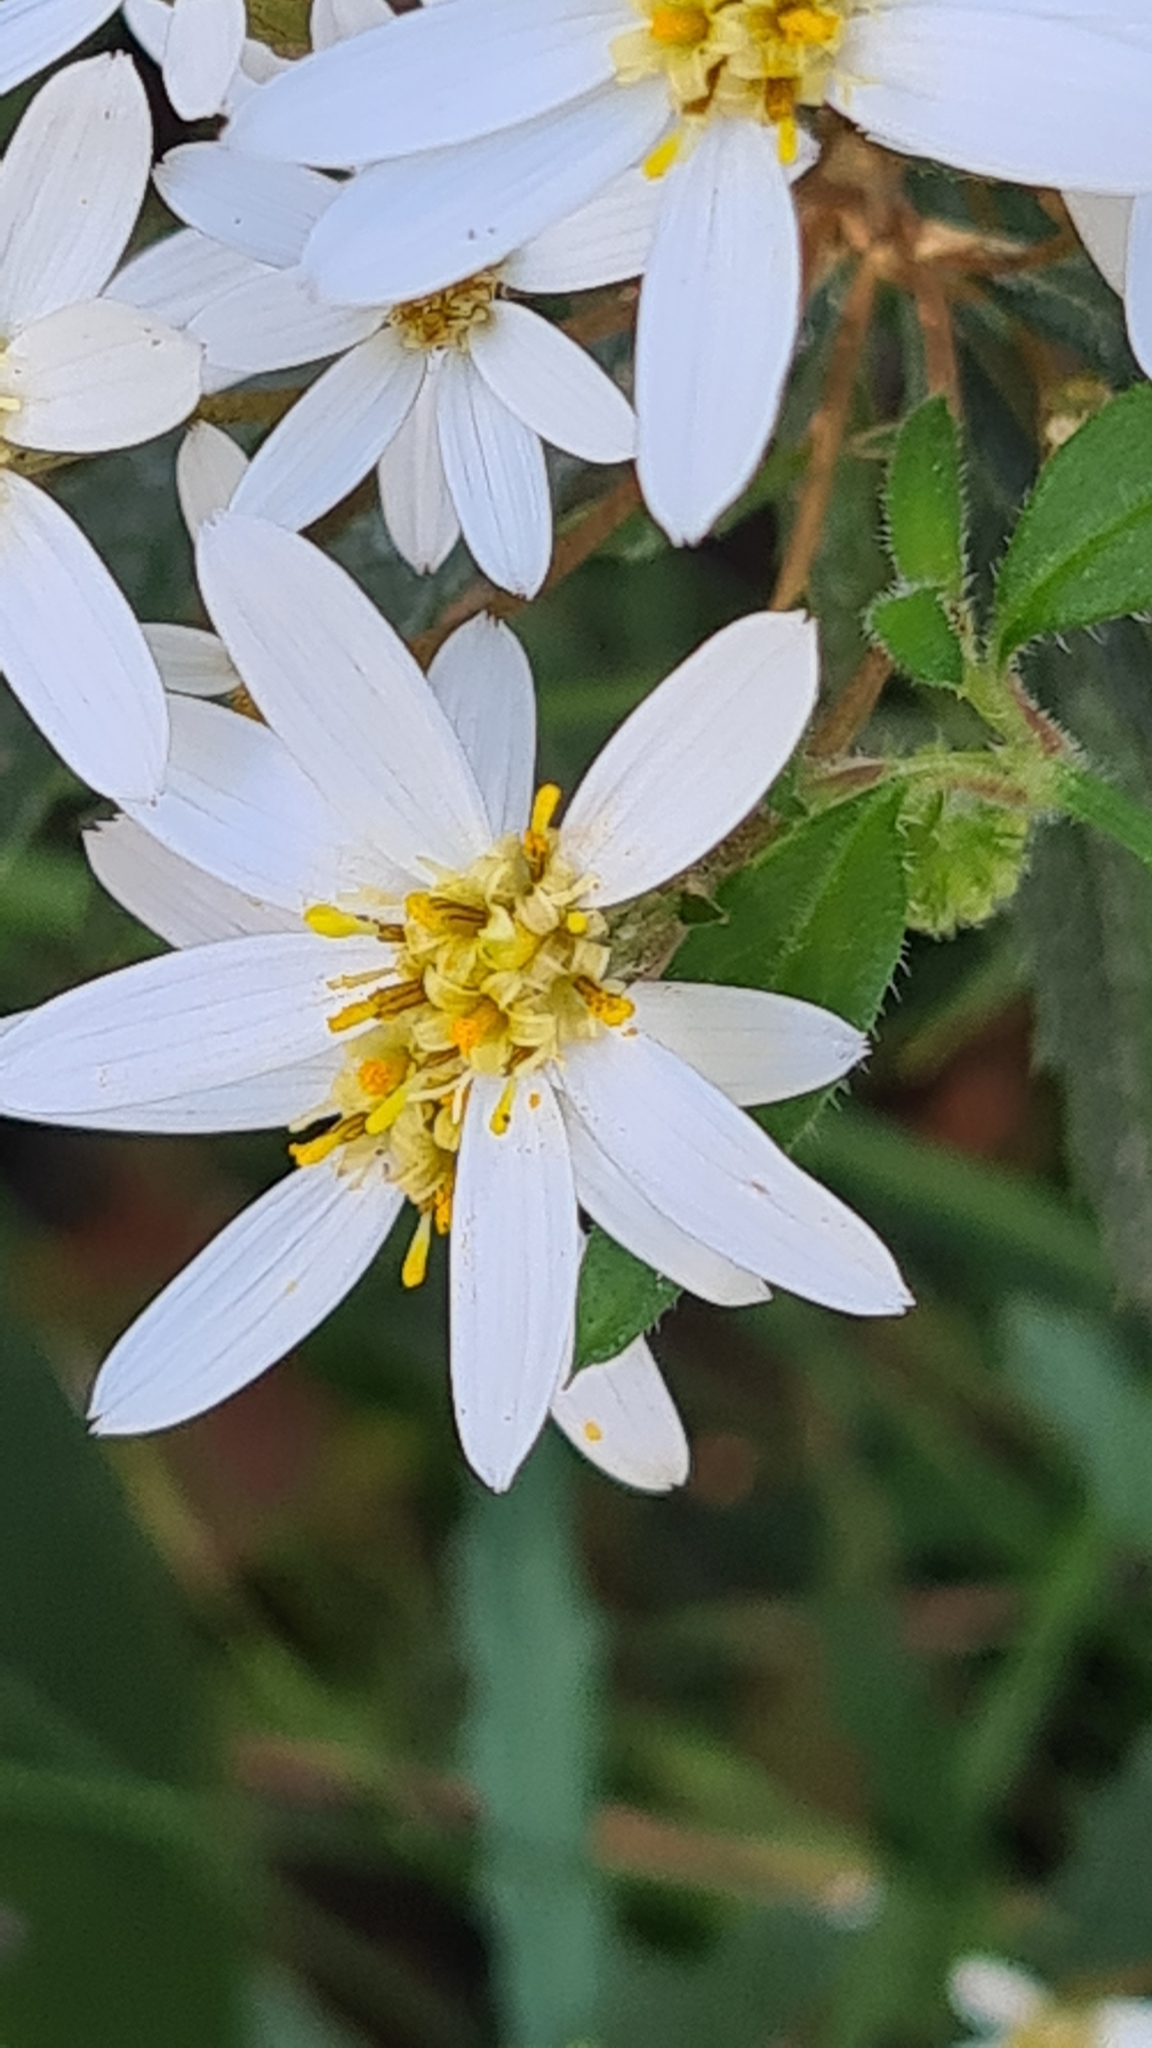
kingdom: Plantae
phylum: Tracheophyta
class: Magnoliopsida
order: Asterales
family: Asteraceae
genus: Olearia
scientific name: Olearia erubescens
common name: Moth daisybush
